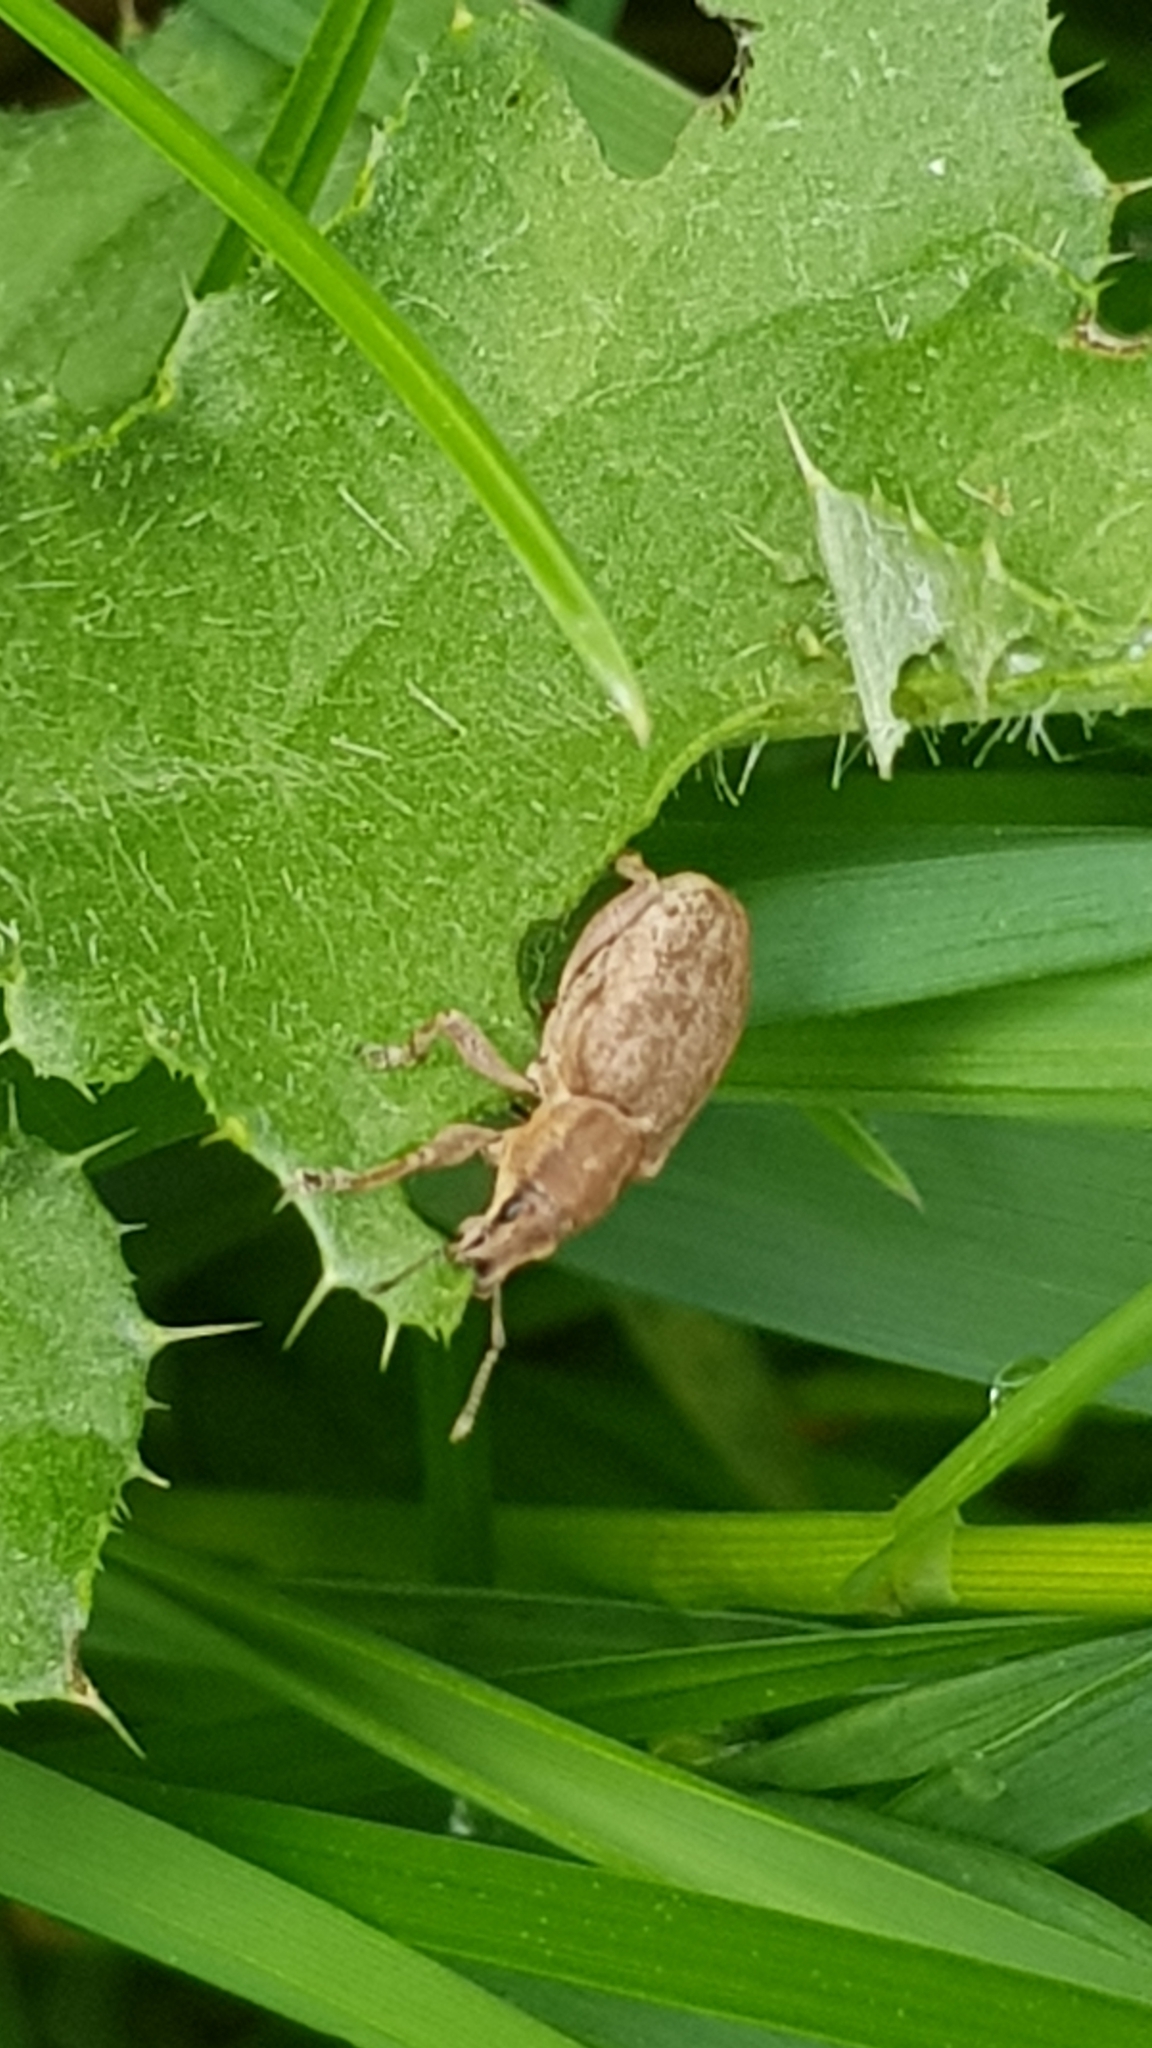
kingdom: Animalia
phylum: Arthropoda
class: Insecta
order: Coleoptera
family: Curculionidae
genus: Tanymecus
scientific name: Tanymecus palliatus
